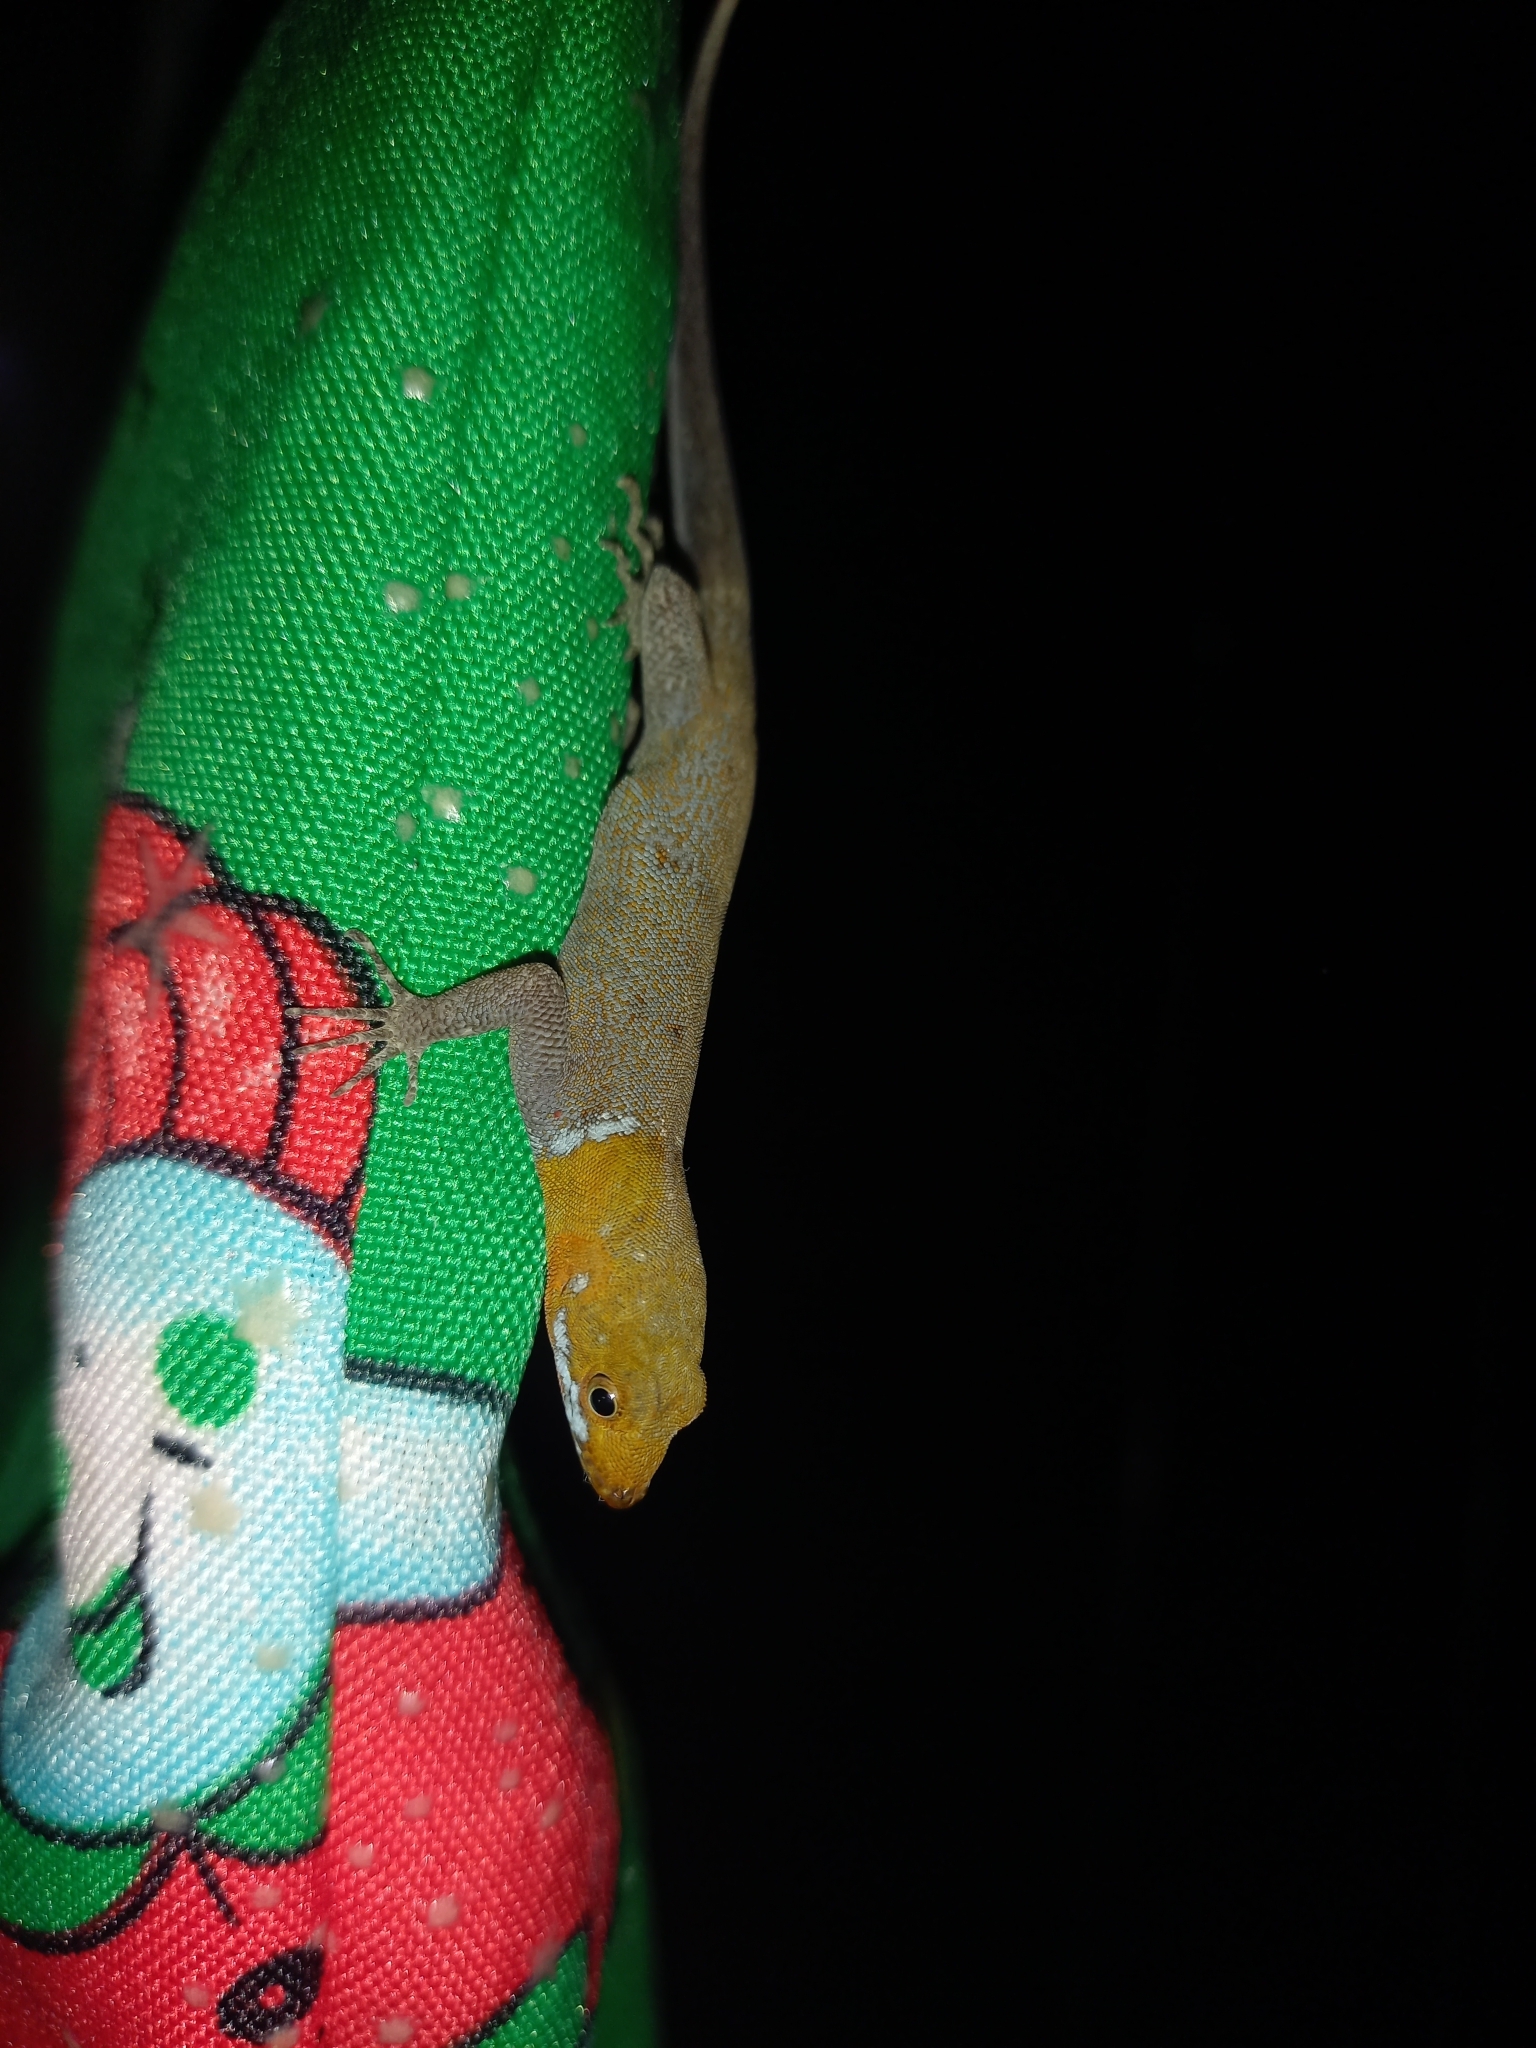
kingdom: Animalia
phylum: Chordata
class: Squamata
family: Sphaerodactylidae
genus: Gonatodes
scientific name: Gonatodes albogularis
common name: Yellow-headed gecko
